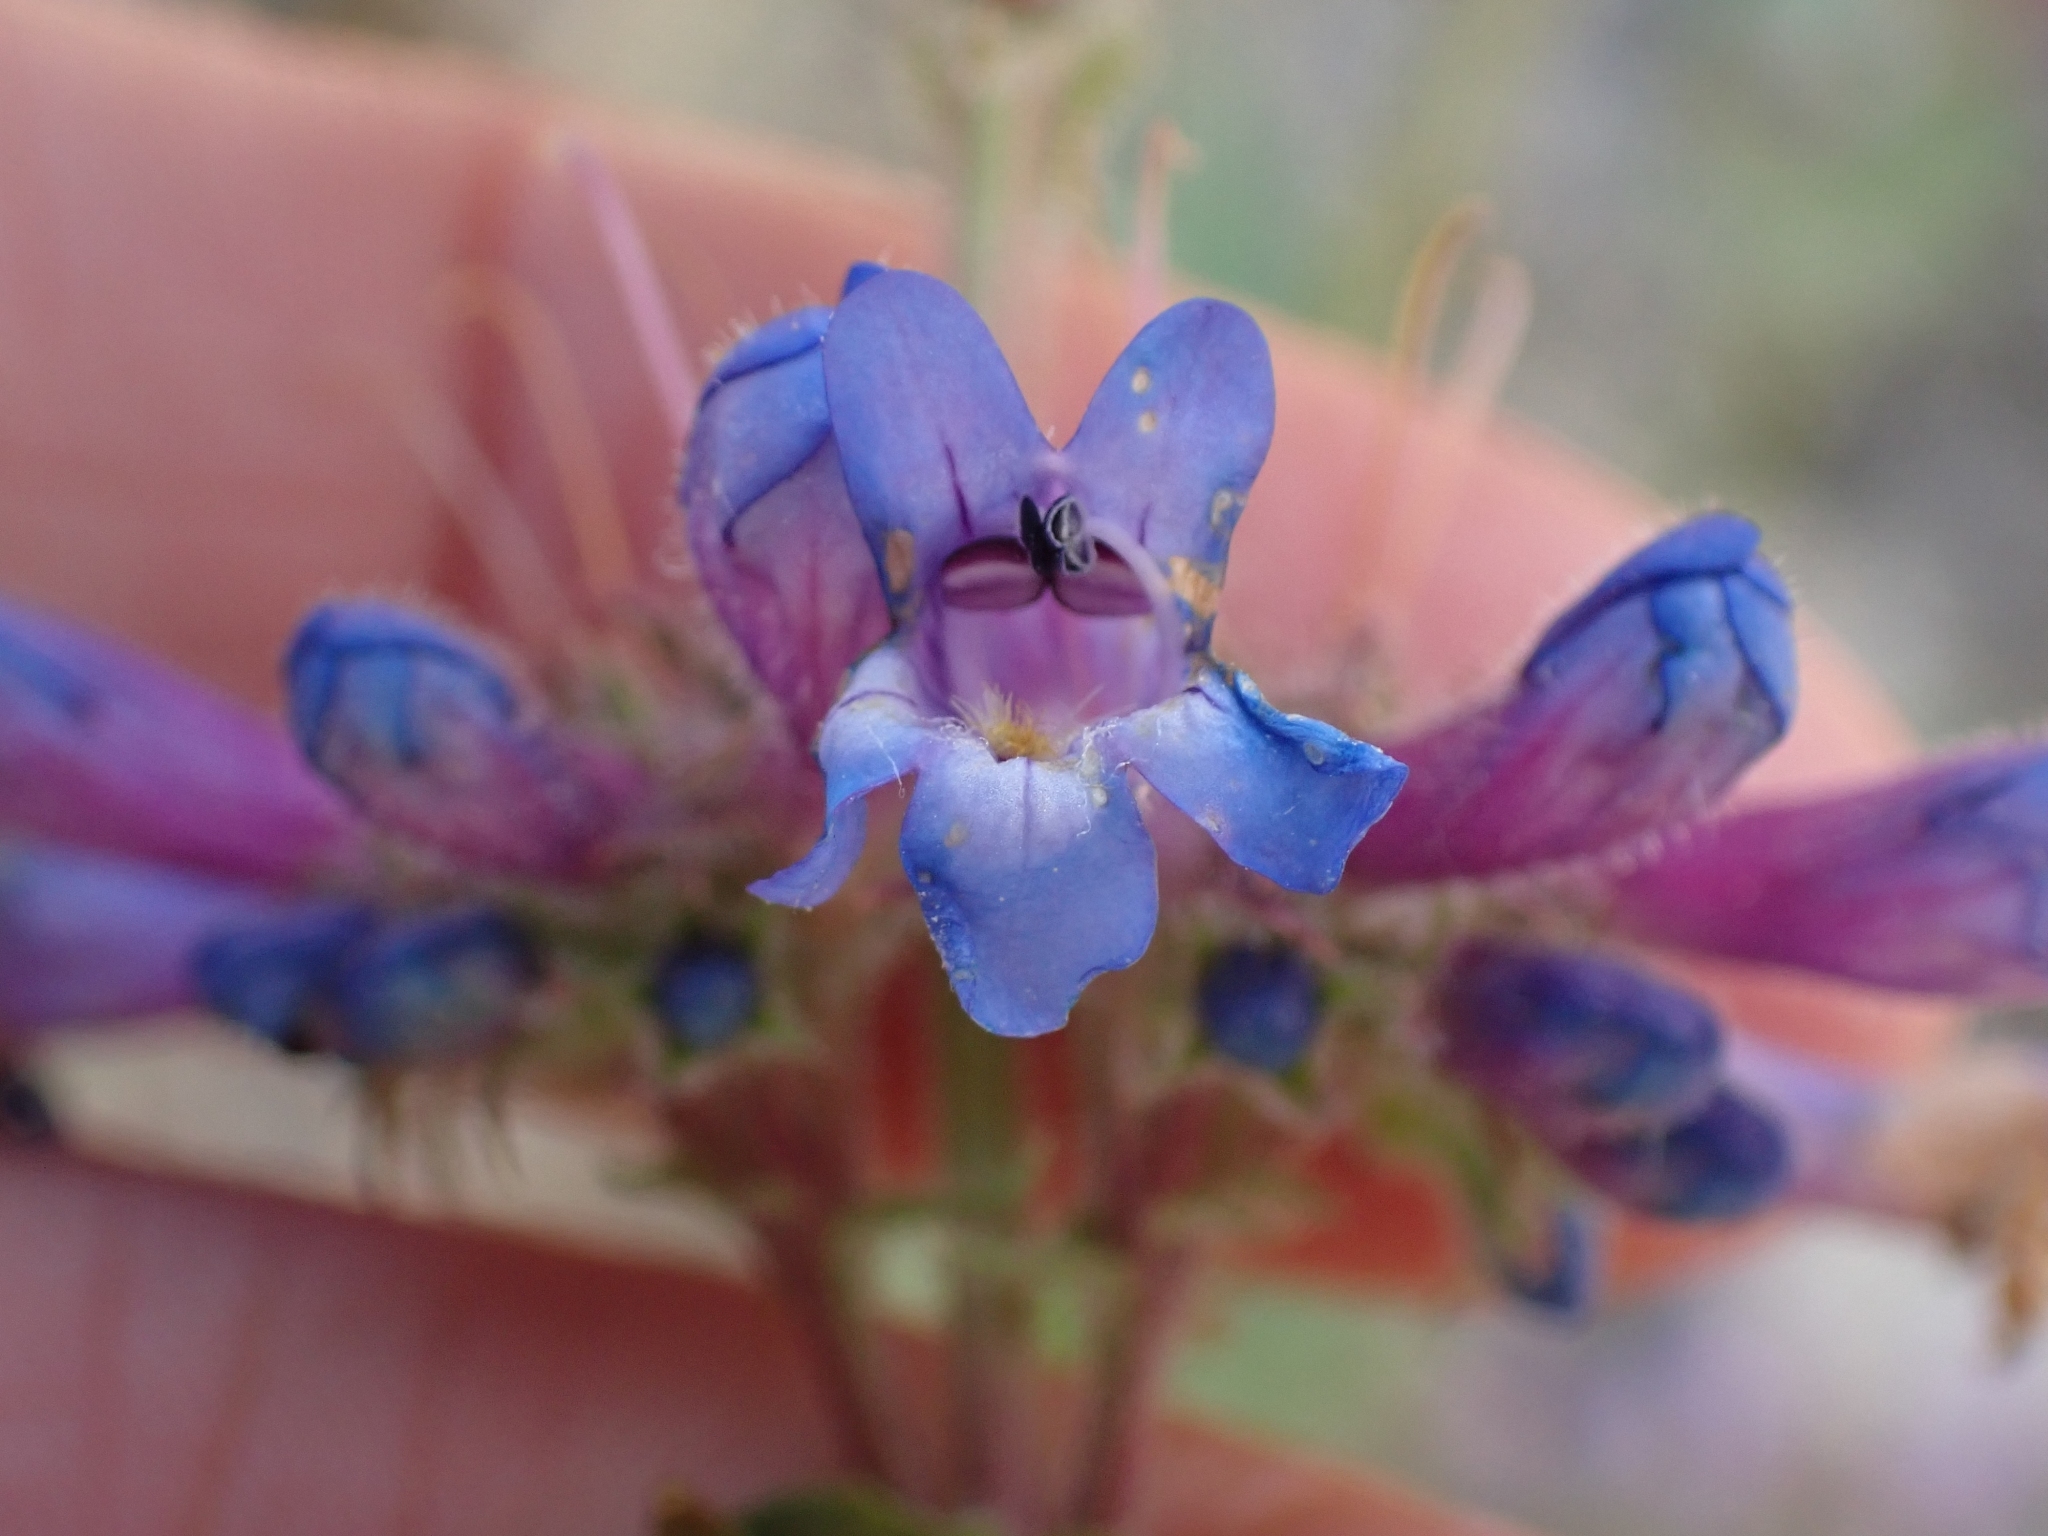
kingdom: Plantae
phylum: Tracheophyta
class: Magnoliopsida
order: Lamiales
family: Plantaginaceae
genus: Penstemon
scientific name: Penstemon pruinosus
